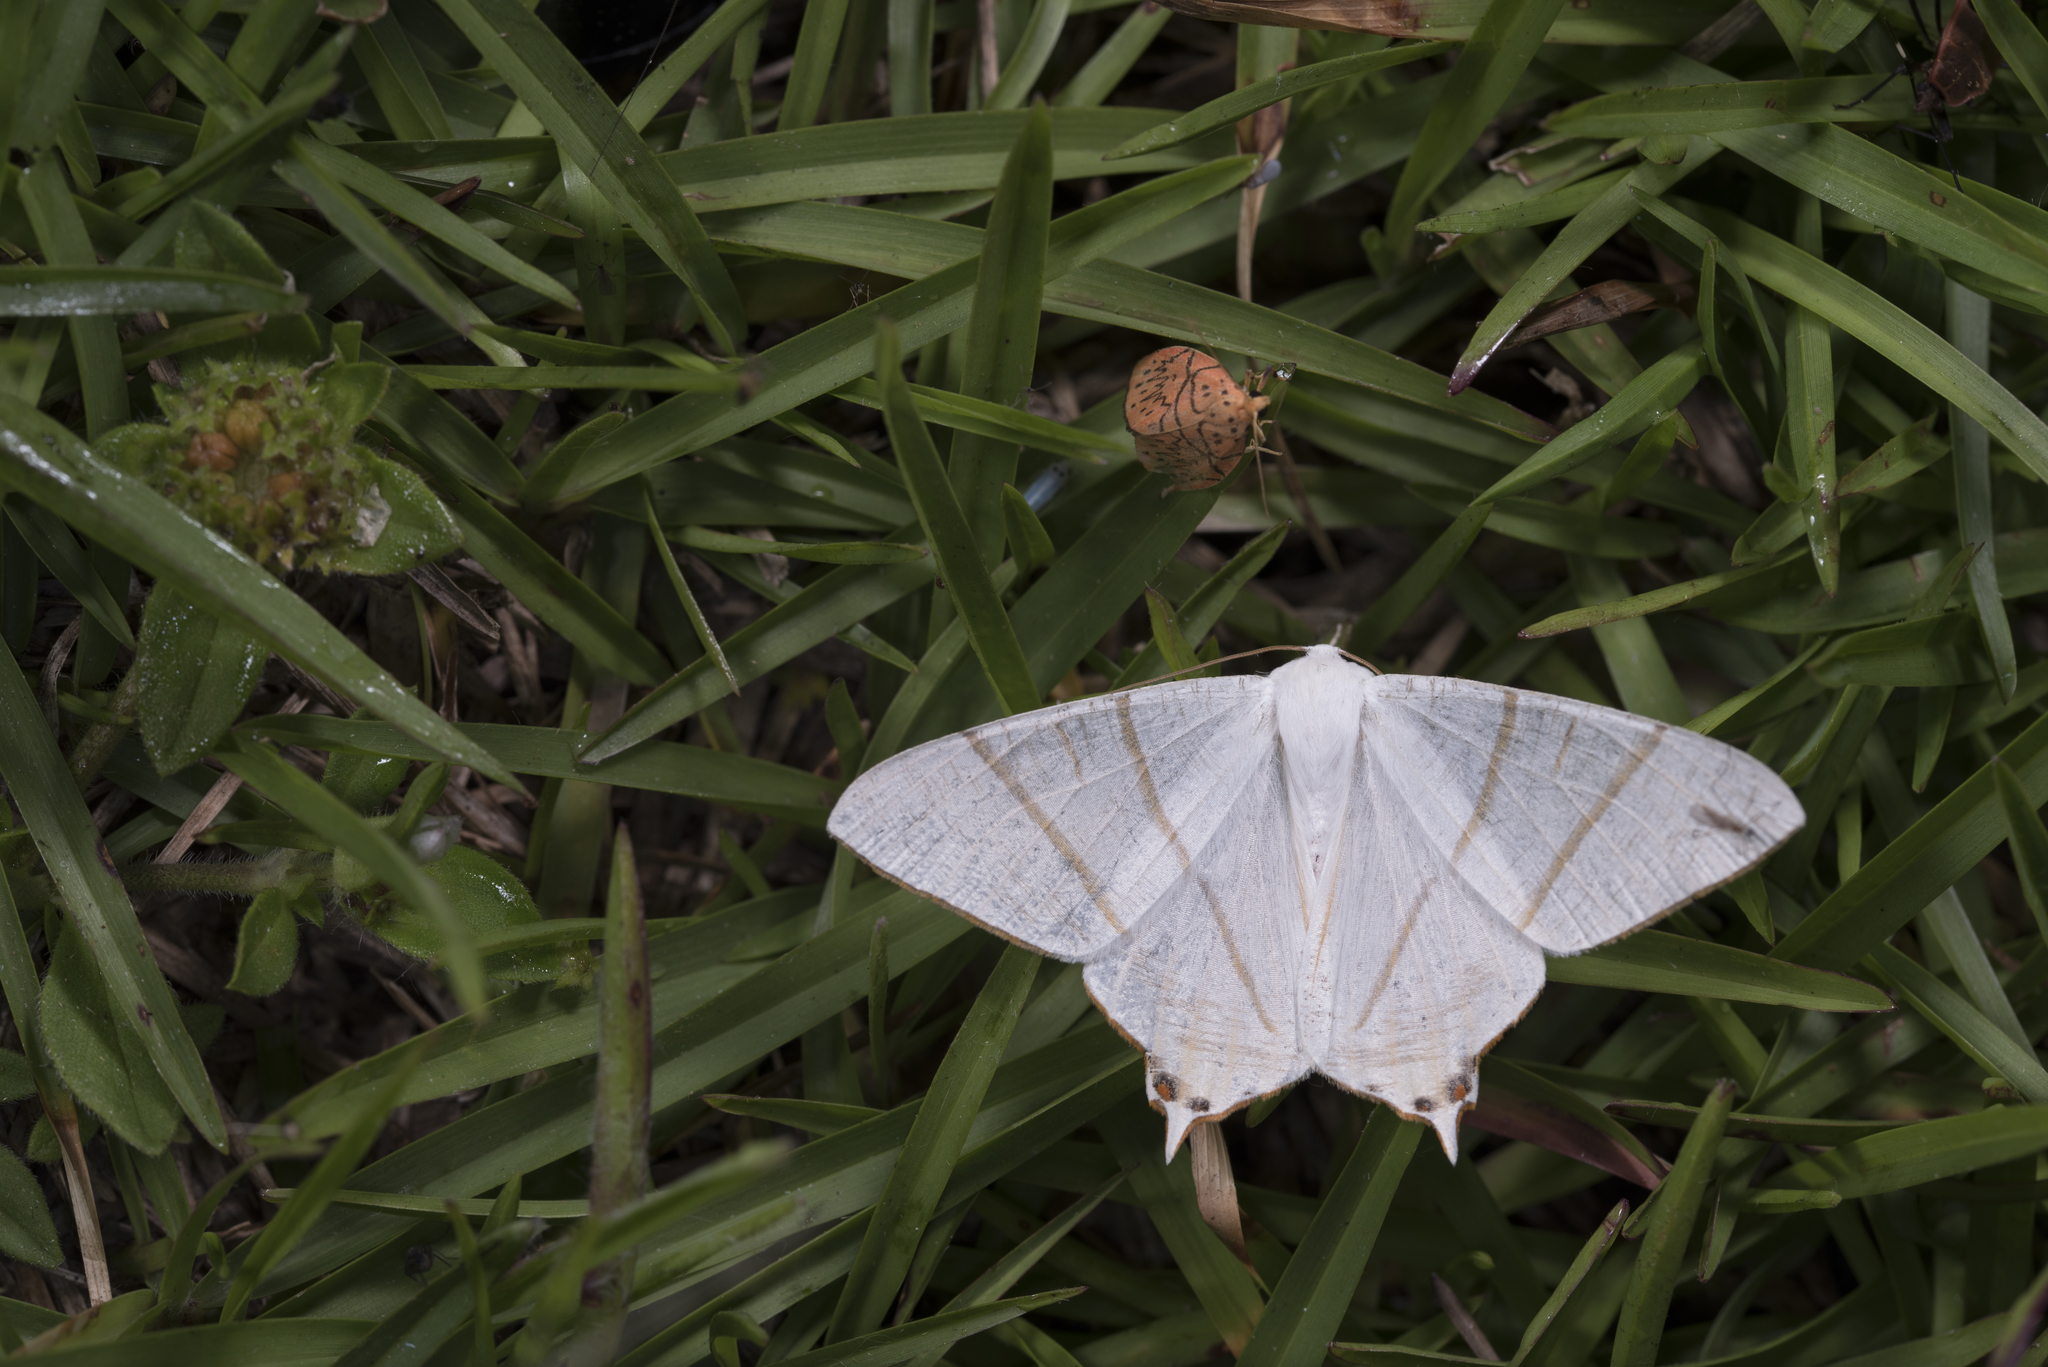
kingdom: Animalia
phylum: Arthropoda
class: Insecta
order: Lepidoptera
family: Geometridae
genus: Ourapteryx
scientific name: Ourapteryx yerburii
